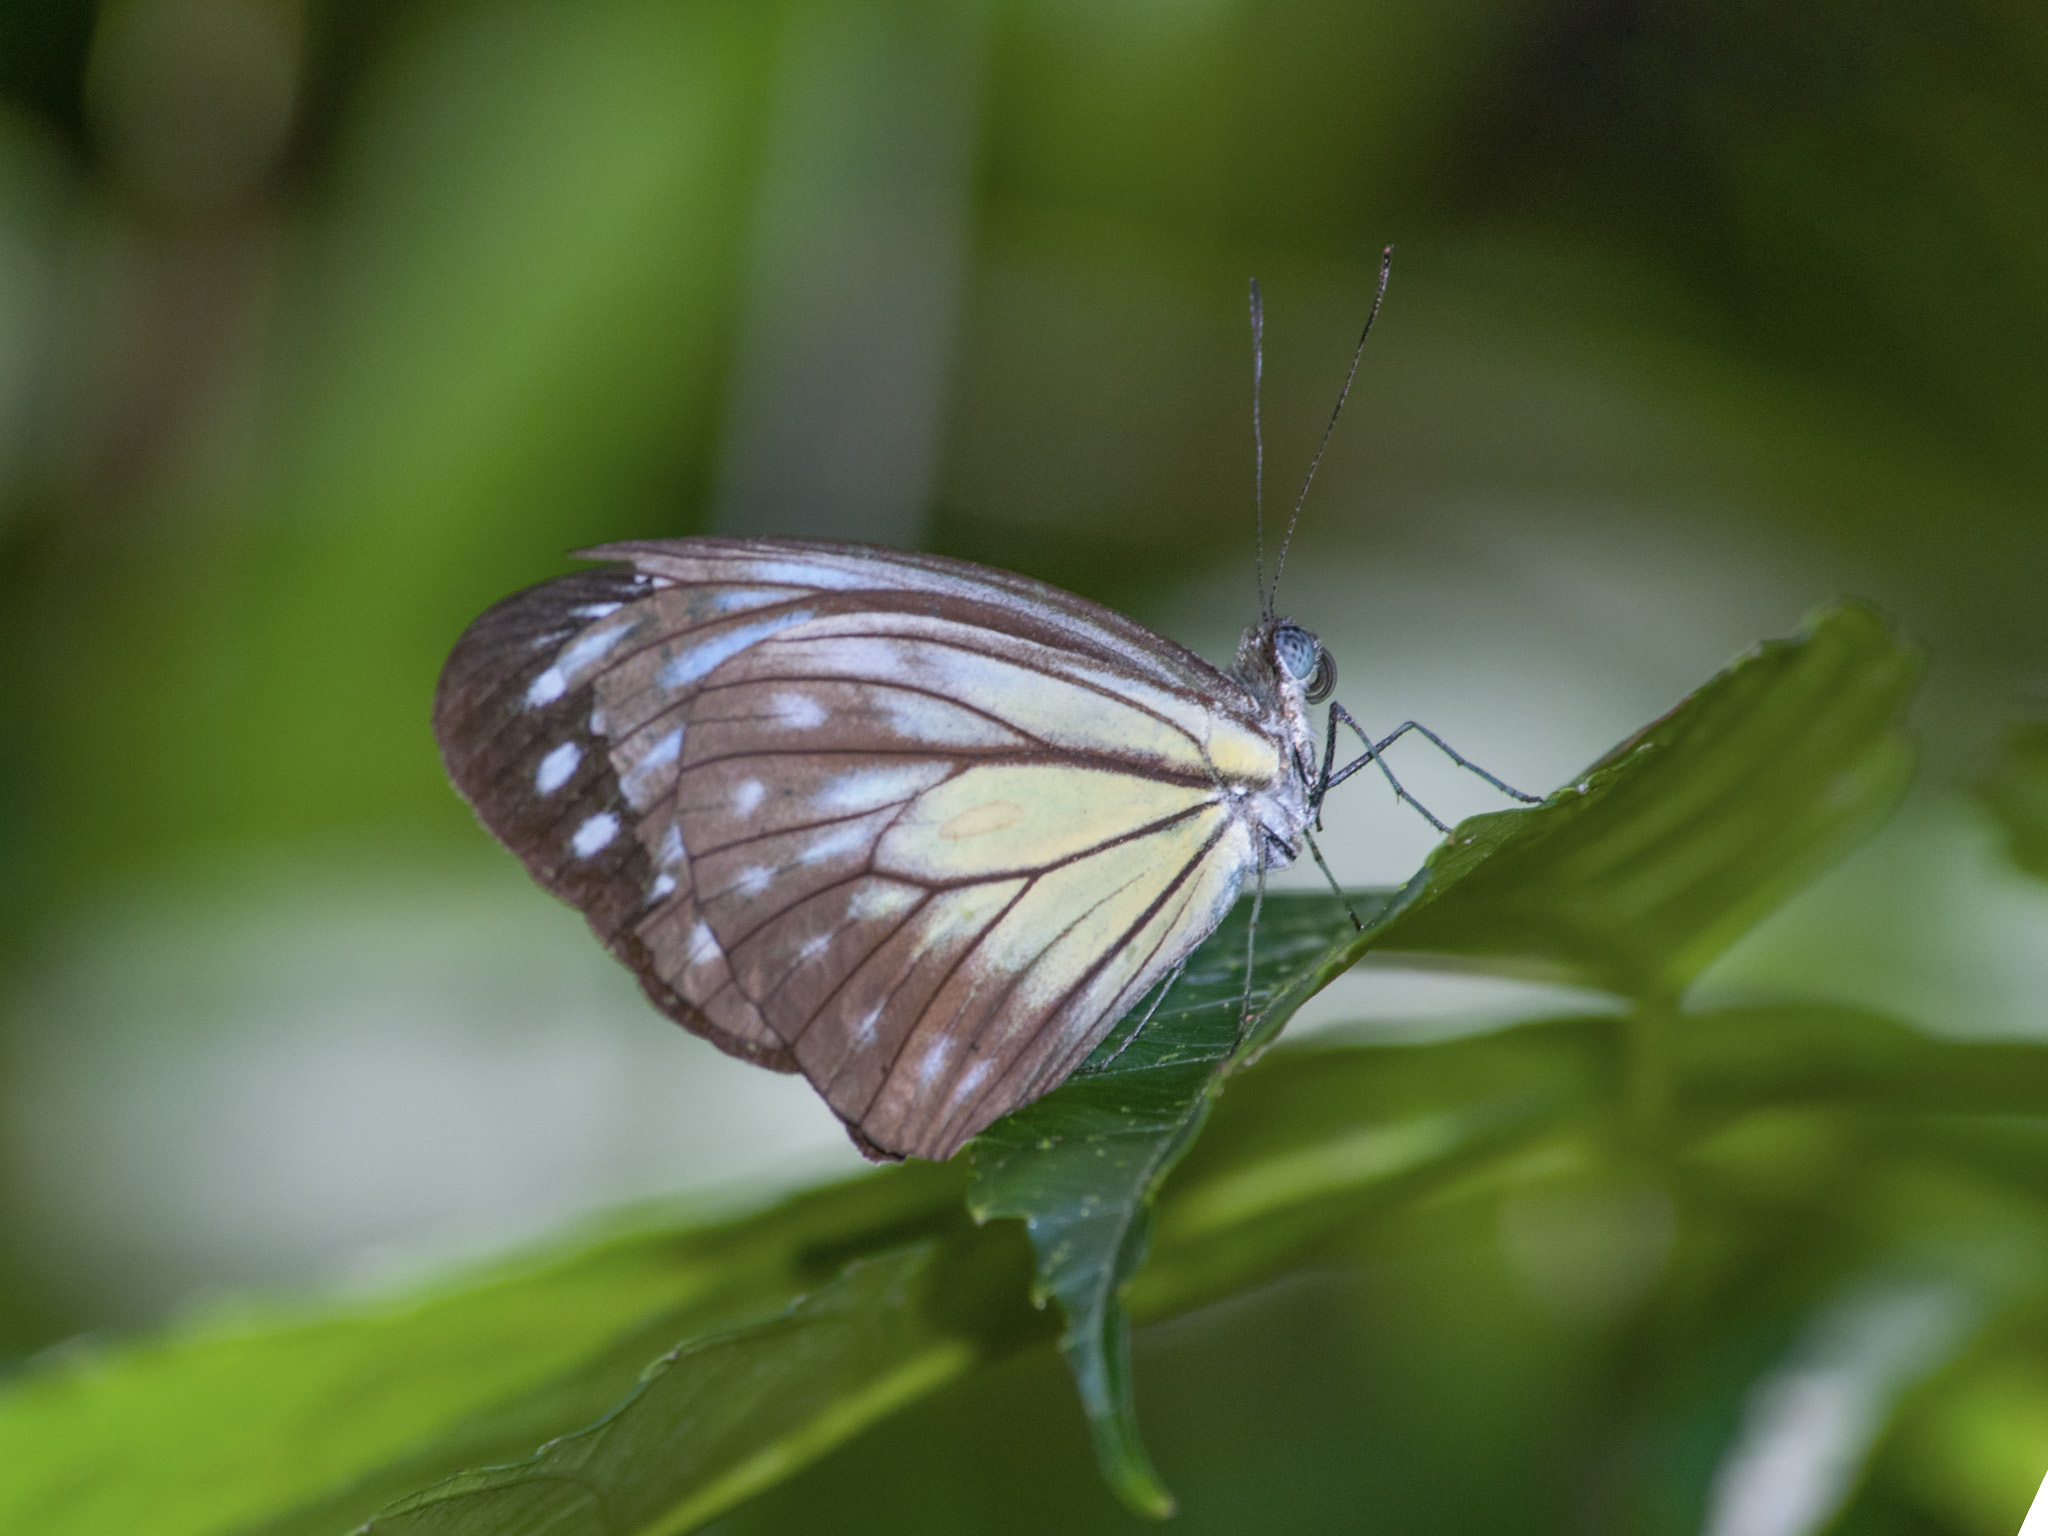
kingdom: Animalia
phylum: Arthropoda
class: Insecta
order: Lepidoptera
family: Pieridae
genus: Pareronia
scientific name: Pareronia valeria
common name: Common wanderer?
